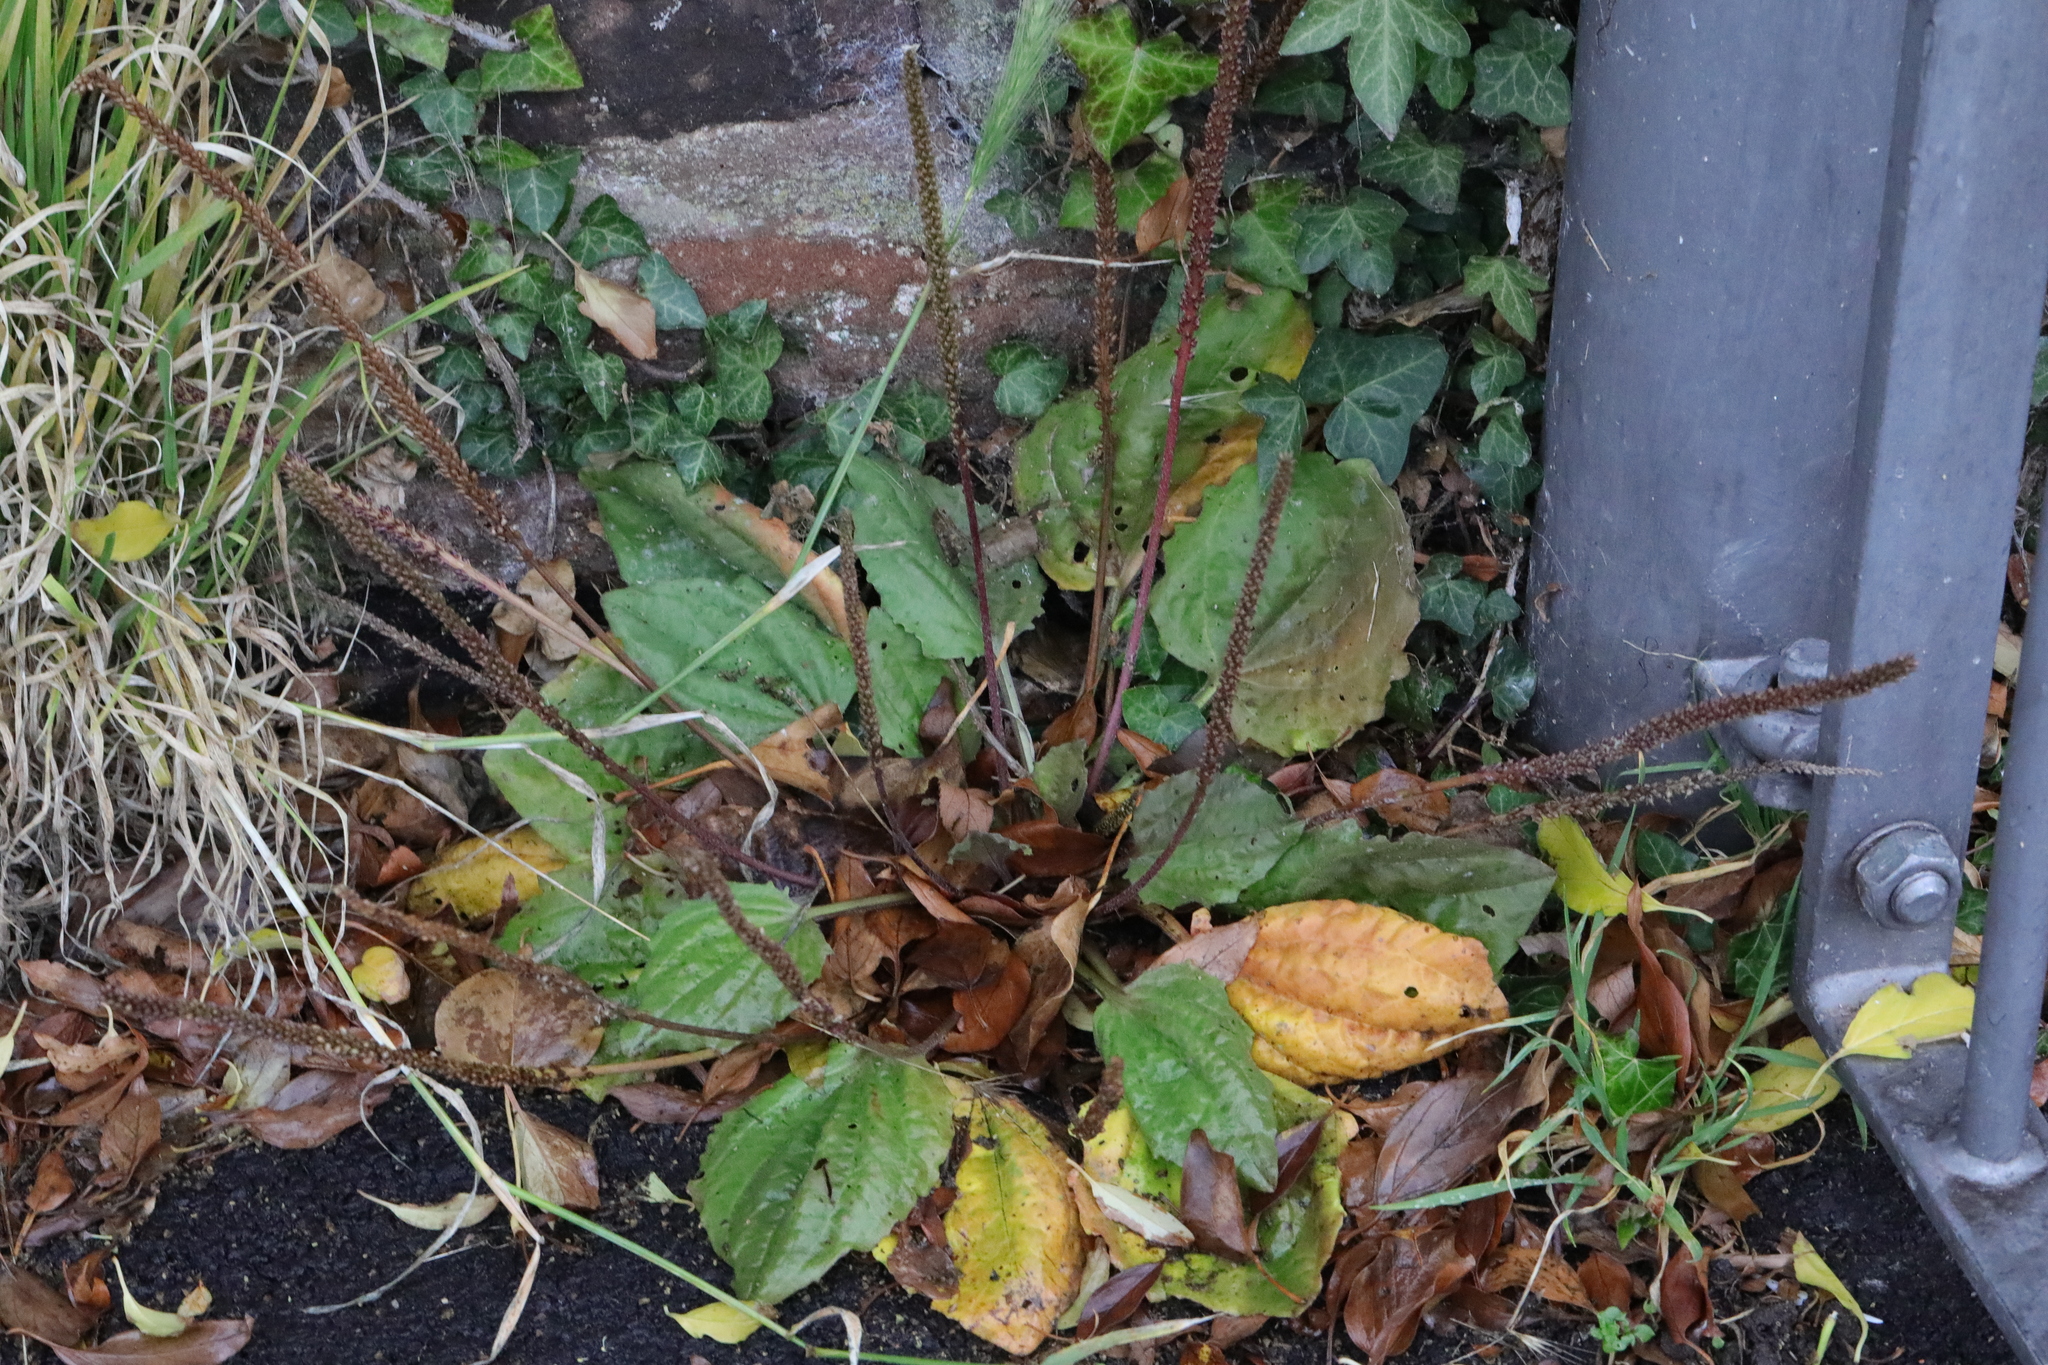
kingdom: Plantae
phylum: Tracheophyta
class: Magnoliopsida
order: Lamiales
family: Plantaginaceae
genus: Plantago
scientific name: Plantago major
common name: Common plantain
